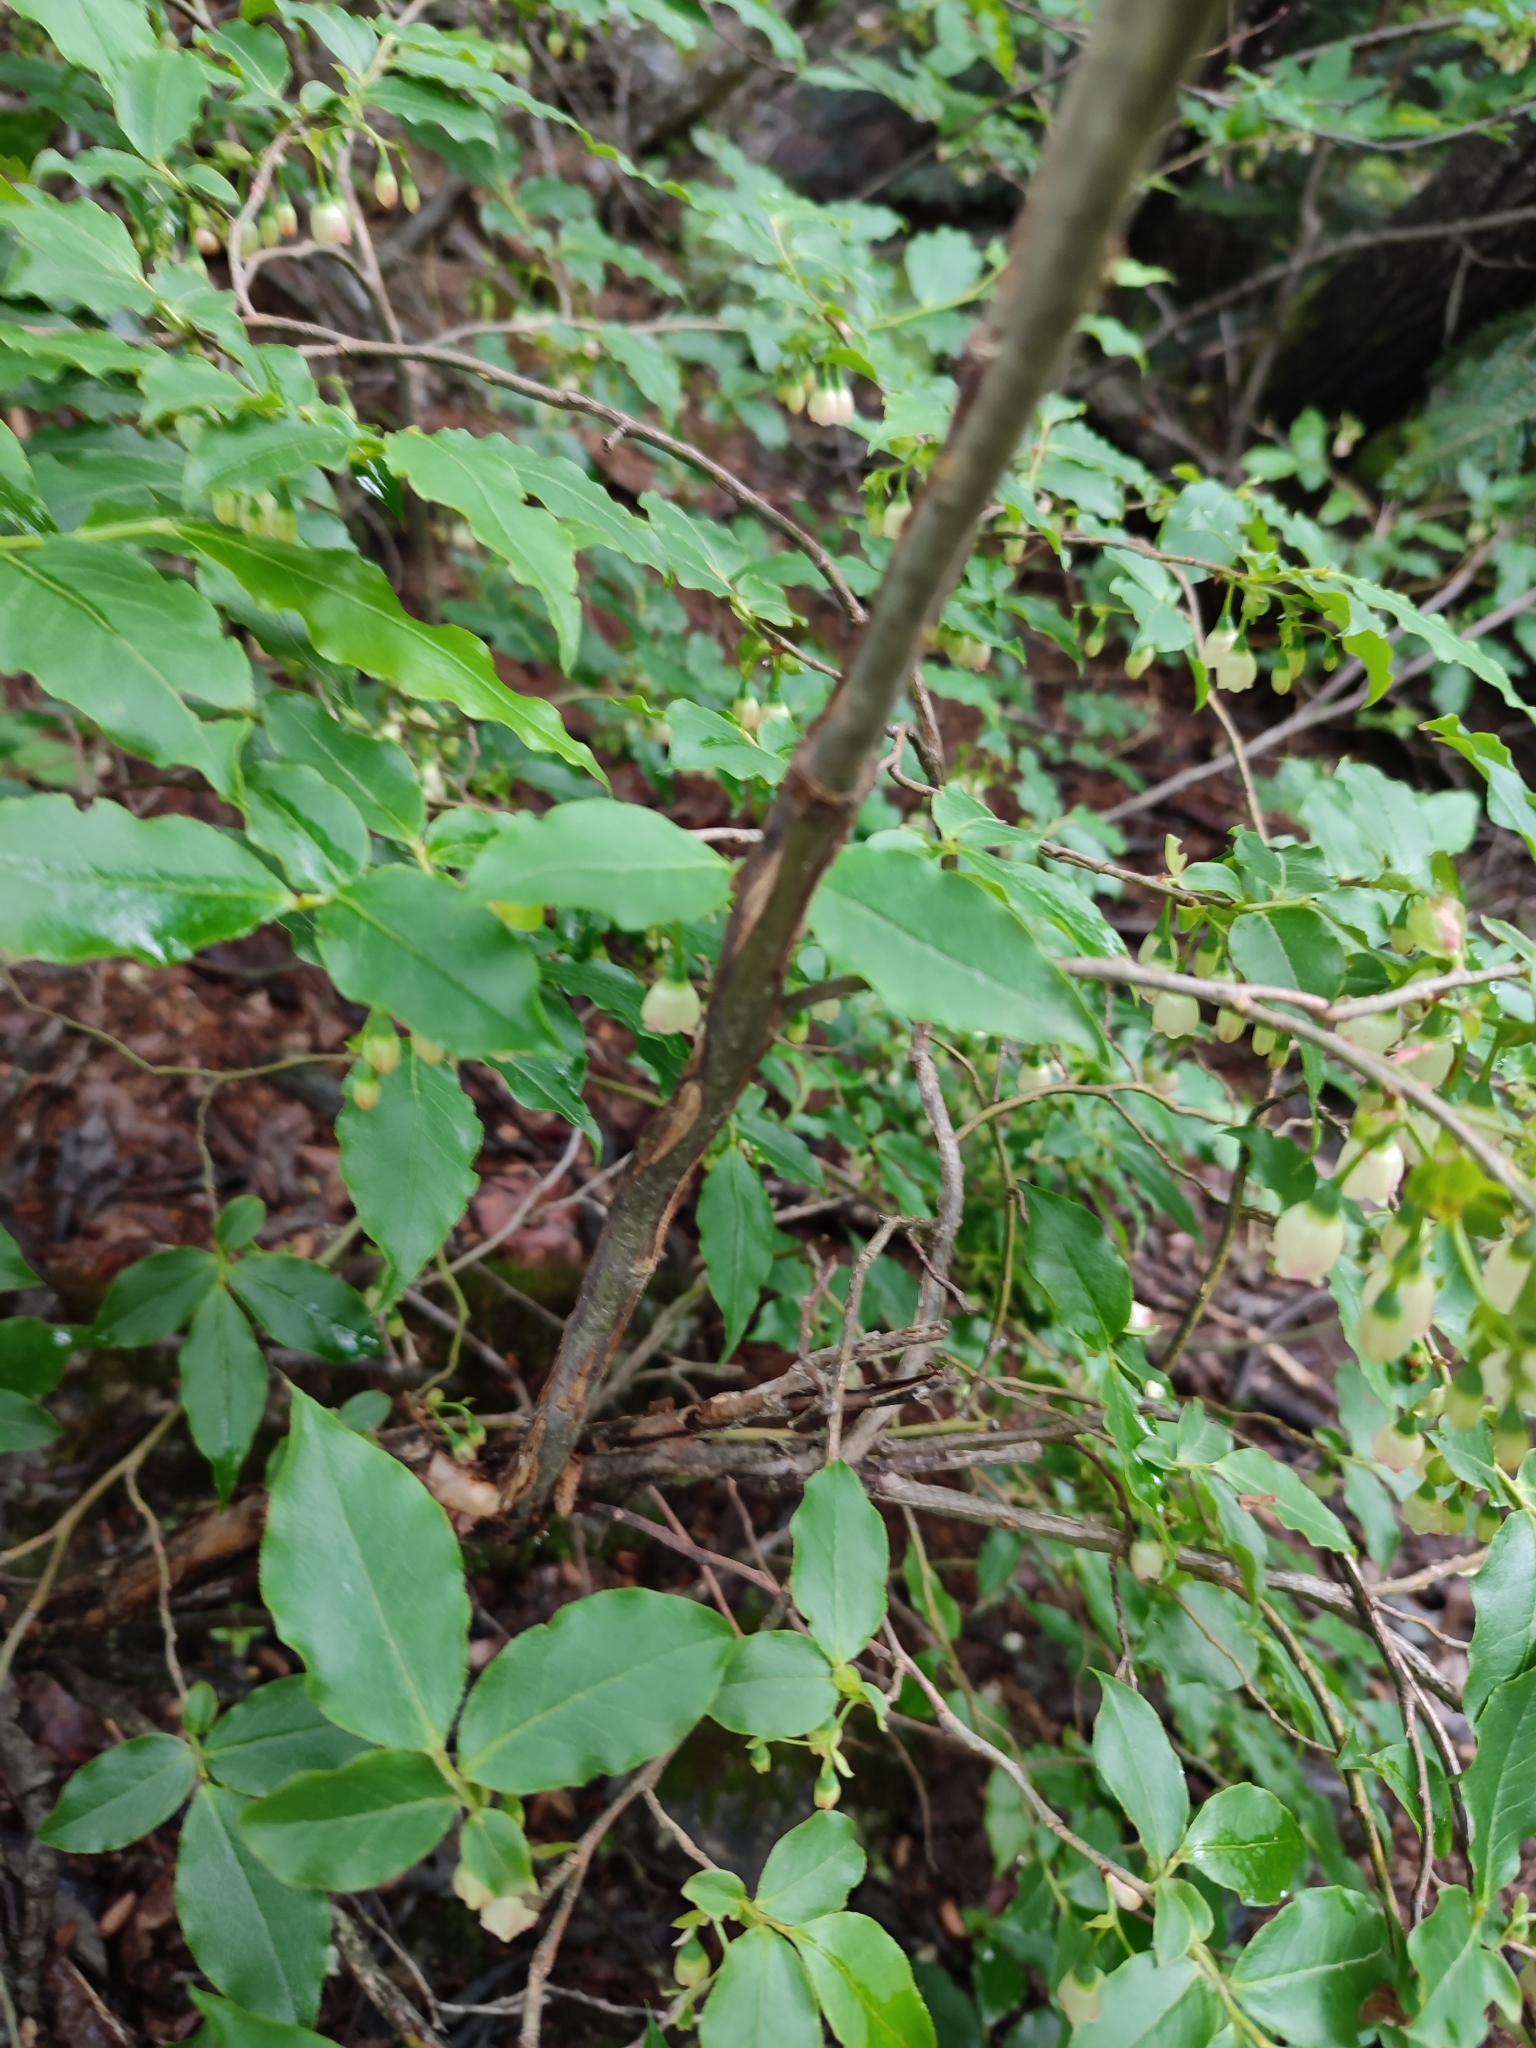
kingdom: Plantae
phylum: Tracheophyta
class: Magnoliopsida
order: Ericales
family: Ericaceae
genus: Vaccinium
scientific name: Vaccinium arctostaphylos
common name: Caucasian whortleberry
